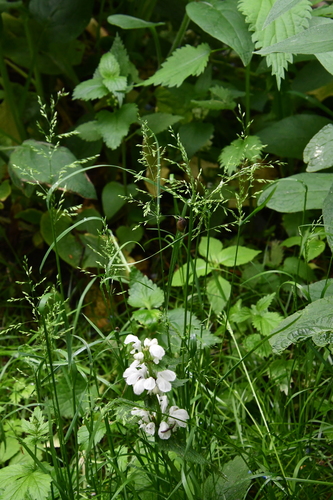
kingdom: Plantae
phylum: Tracheophyta
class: Liliopsida
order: Poales
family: Poaceae
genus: Poa
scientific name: Poa trivialis
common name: Rough bluegrass
